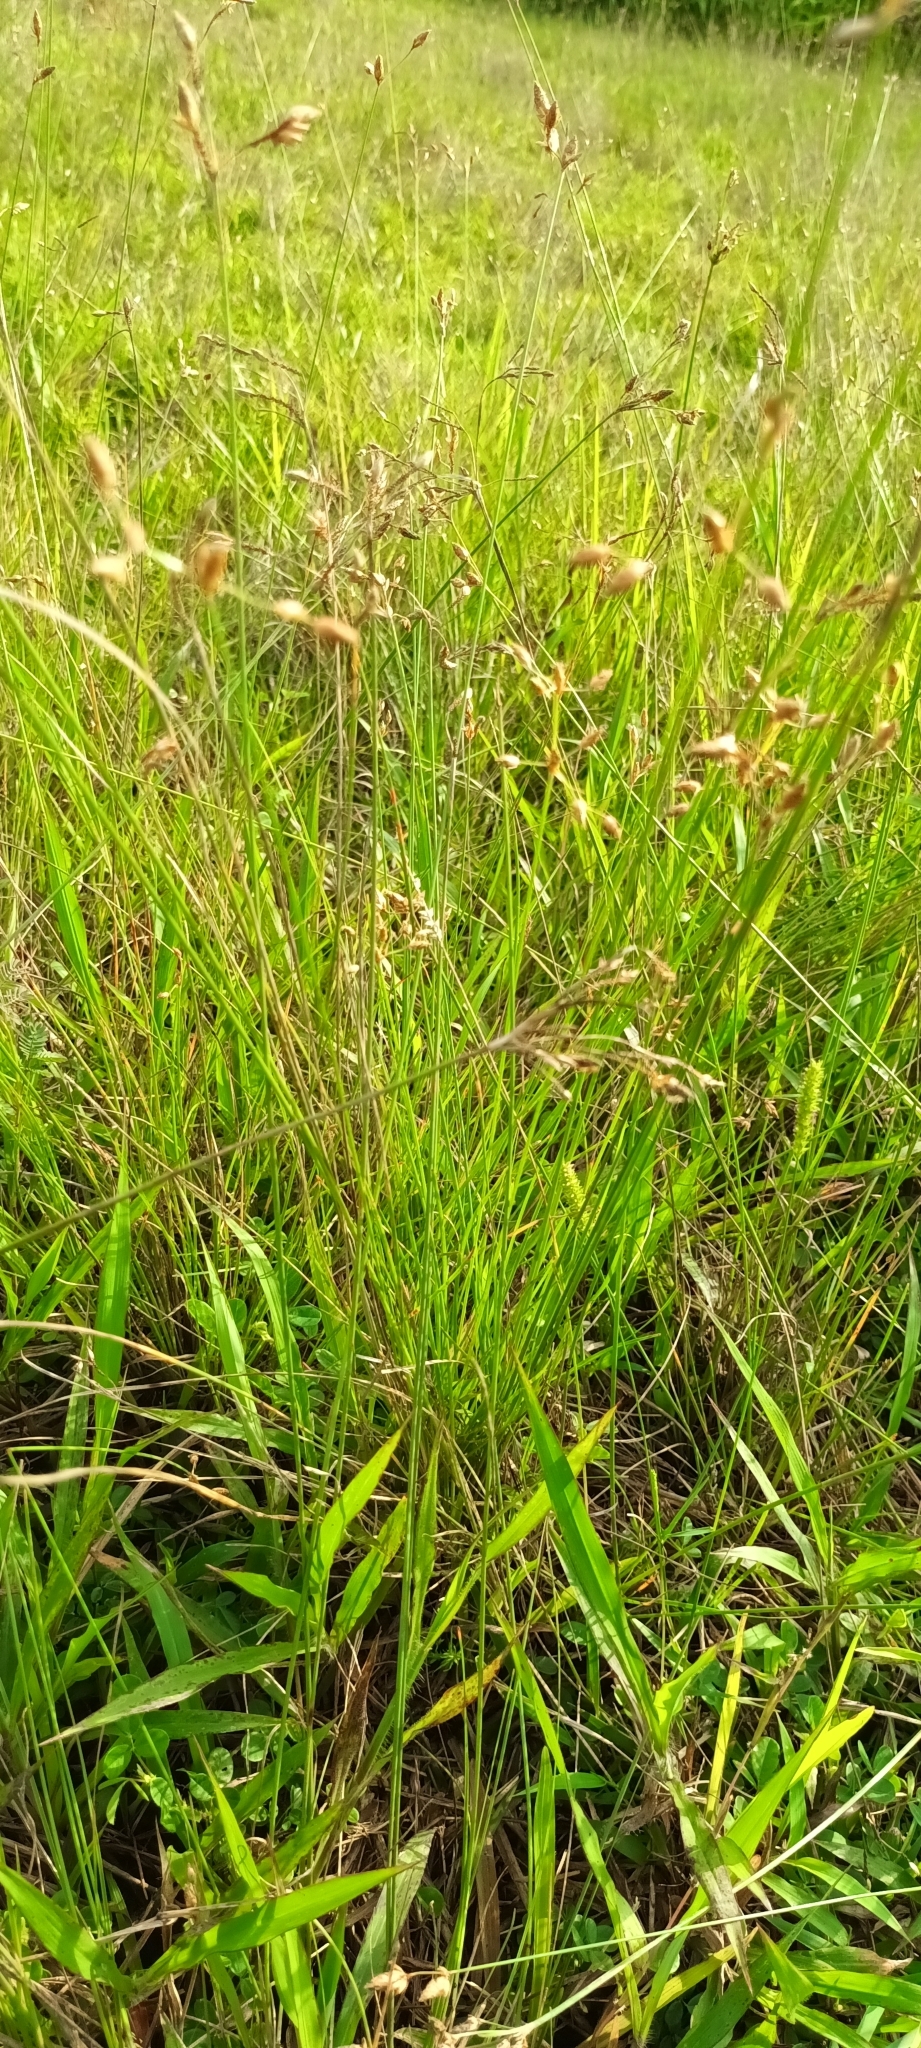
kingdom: Plantae
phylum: Tracheophyta
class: Liliopsida
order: Poales
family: Cyperaceae
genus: Fimbristylis
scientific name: Fimbristylis tristachya
